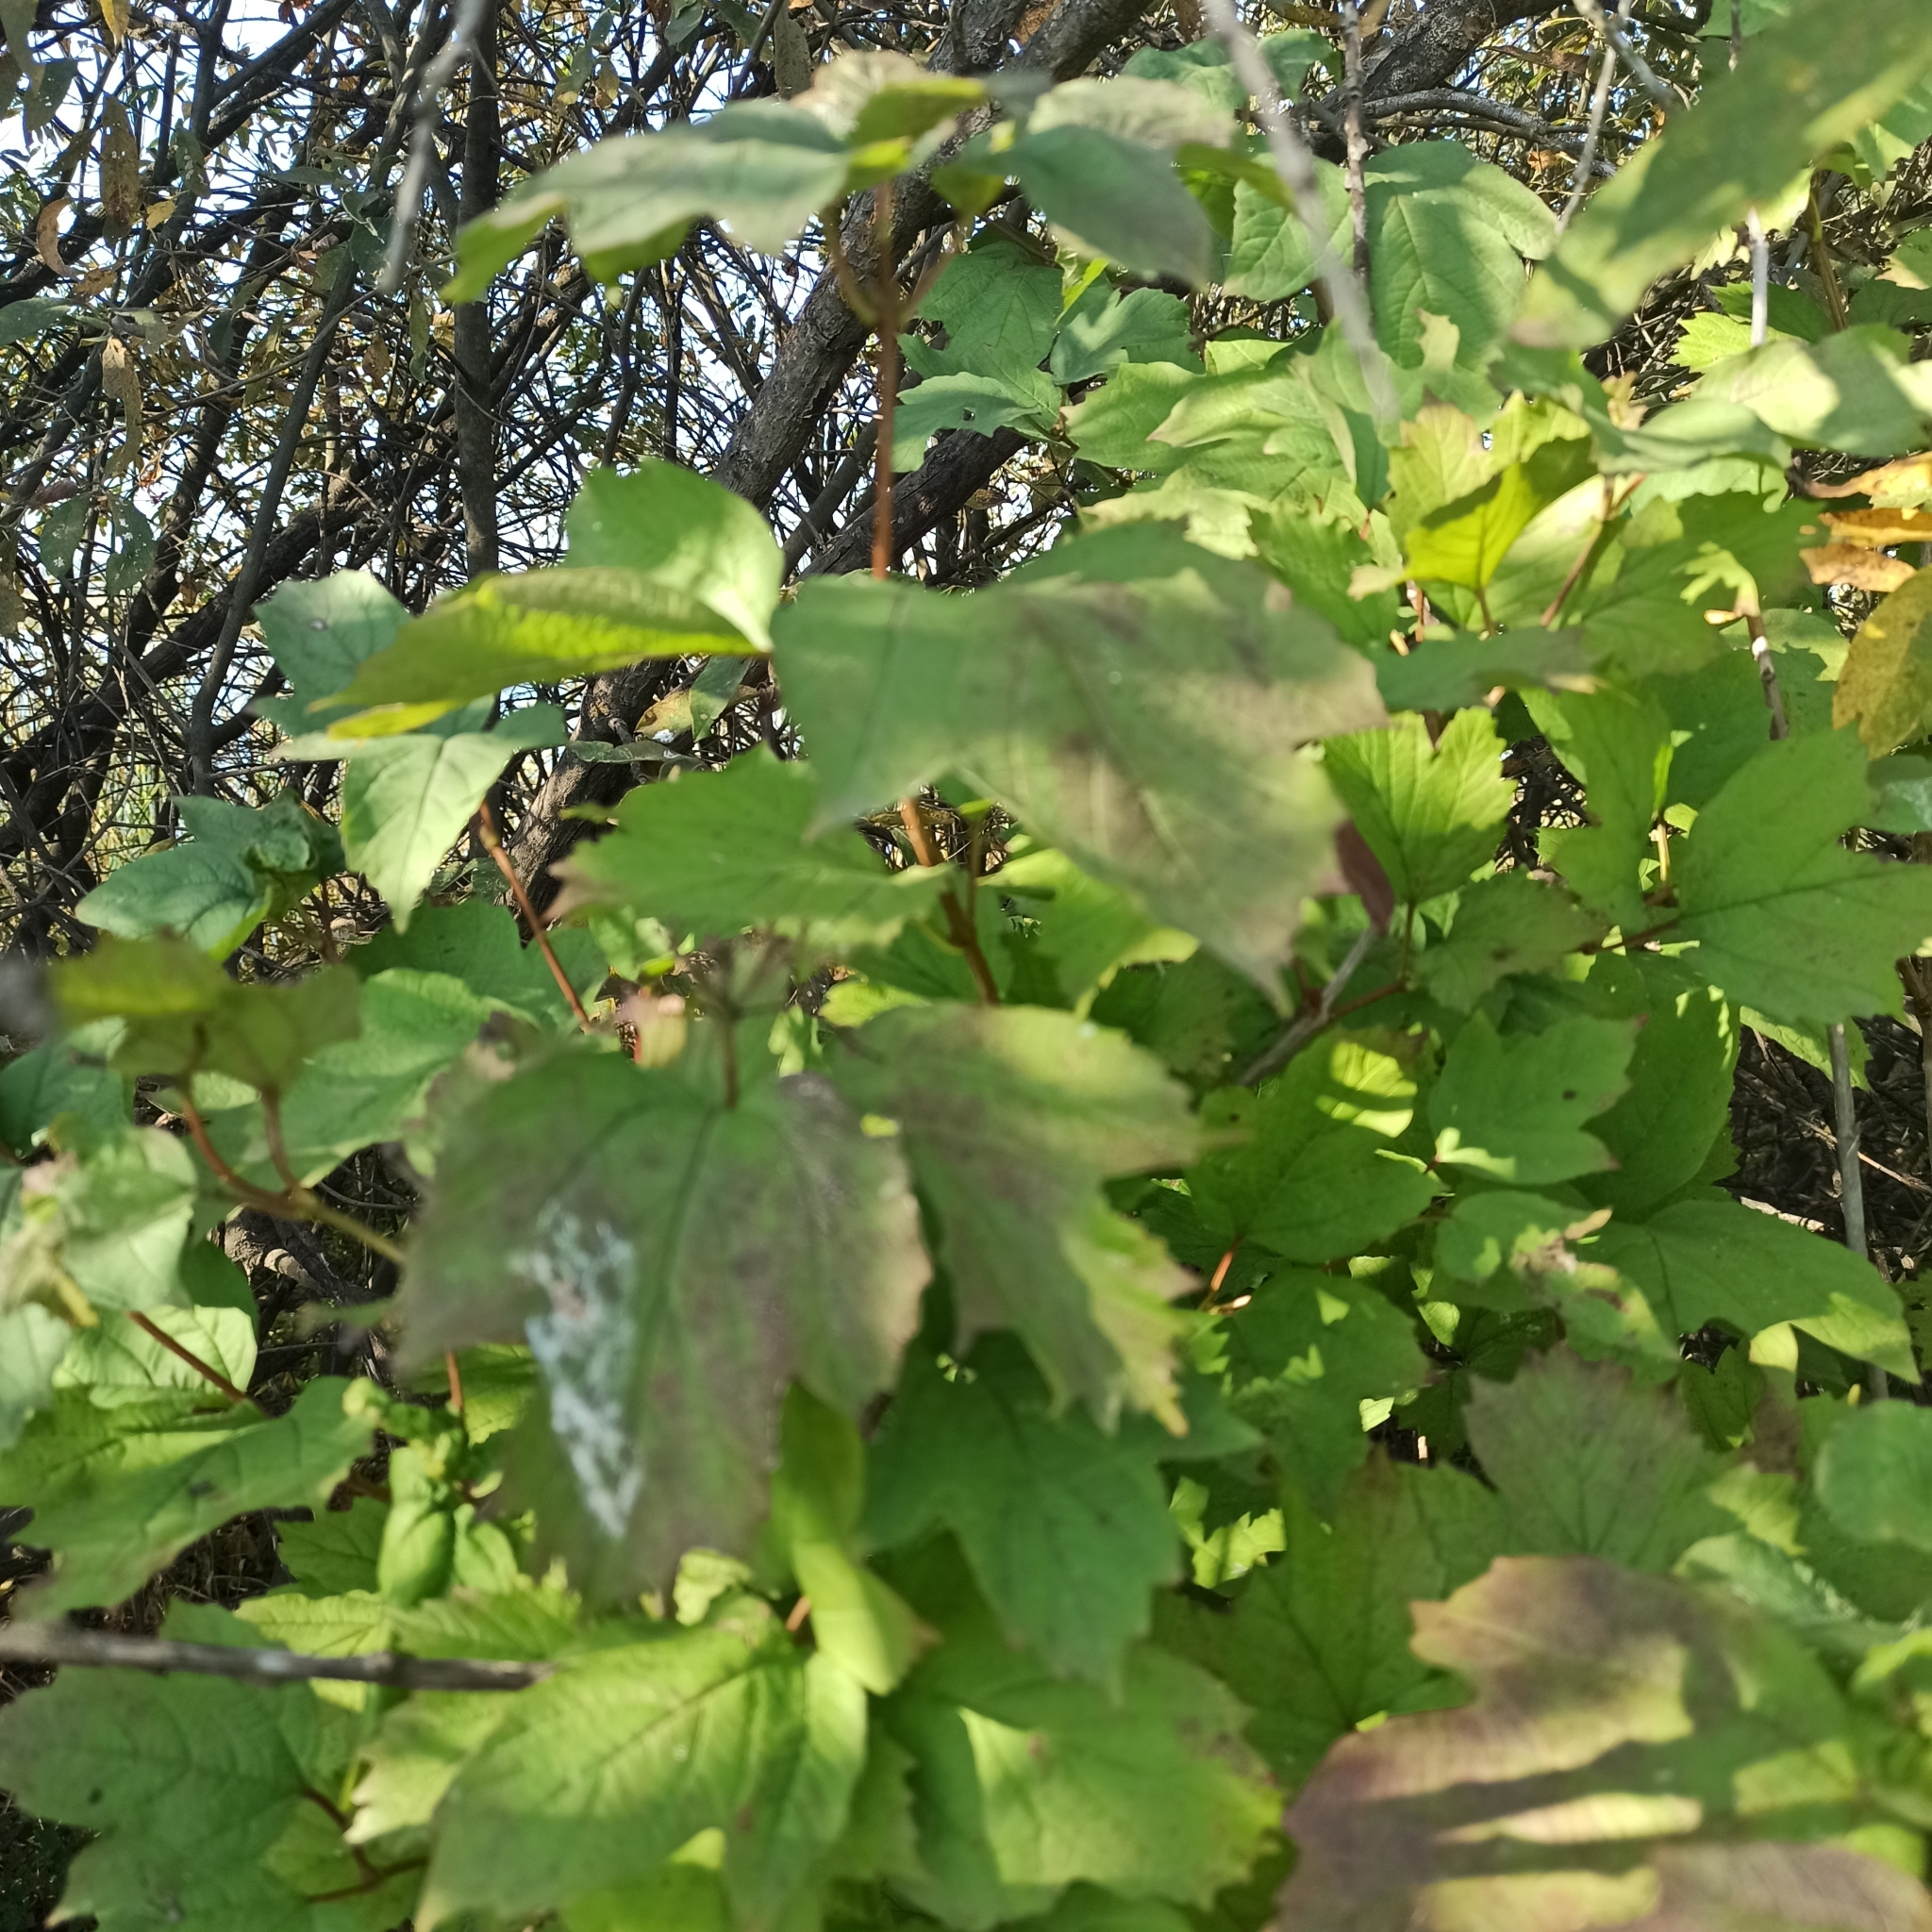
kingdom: Plantae
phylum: Tracheophyta
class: Magnoliopsida
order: Dipsacales
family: Viburnaceae
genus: Viburnum
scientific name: Viburnum opulus
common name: Guelder-rose
